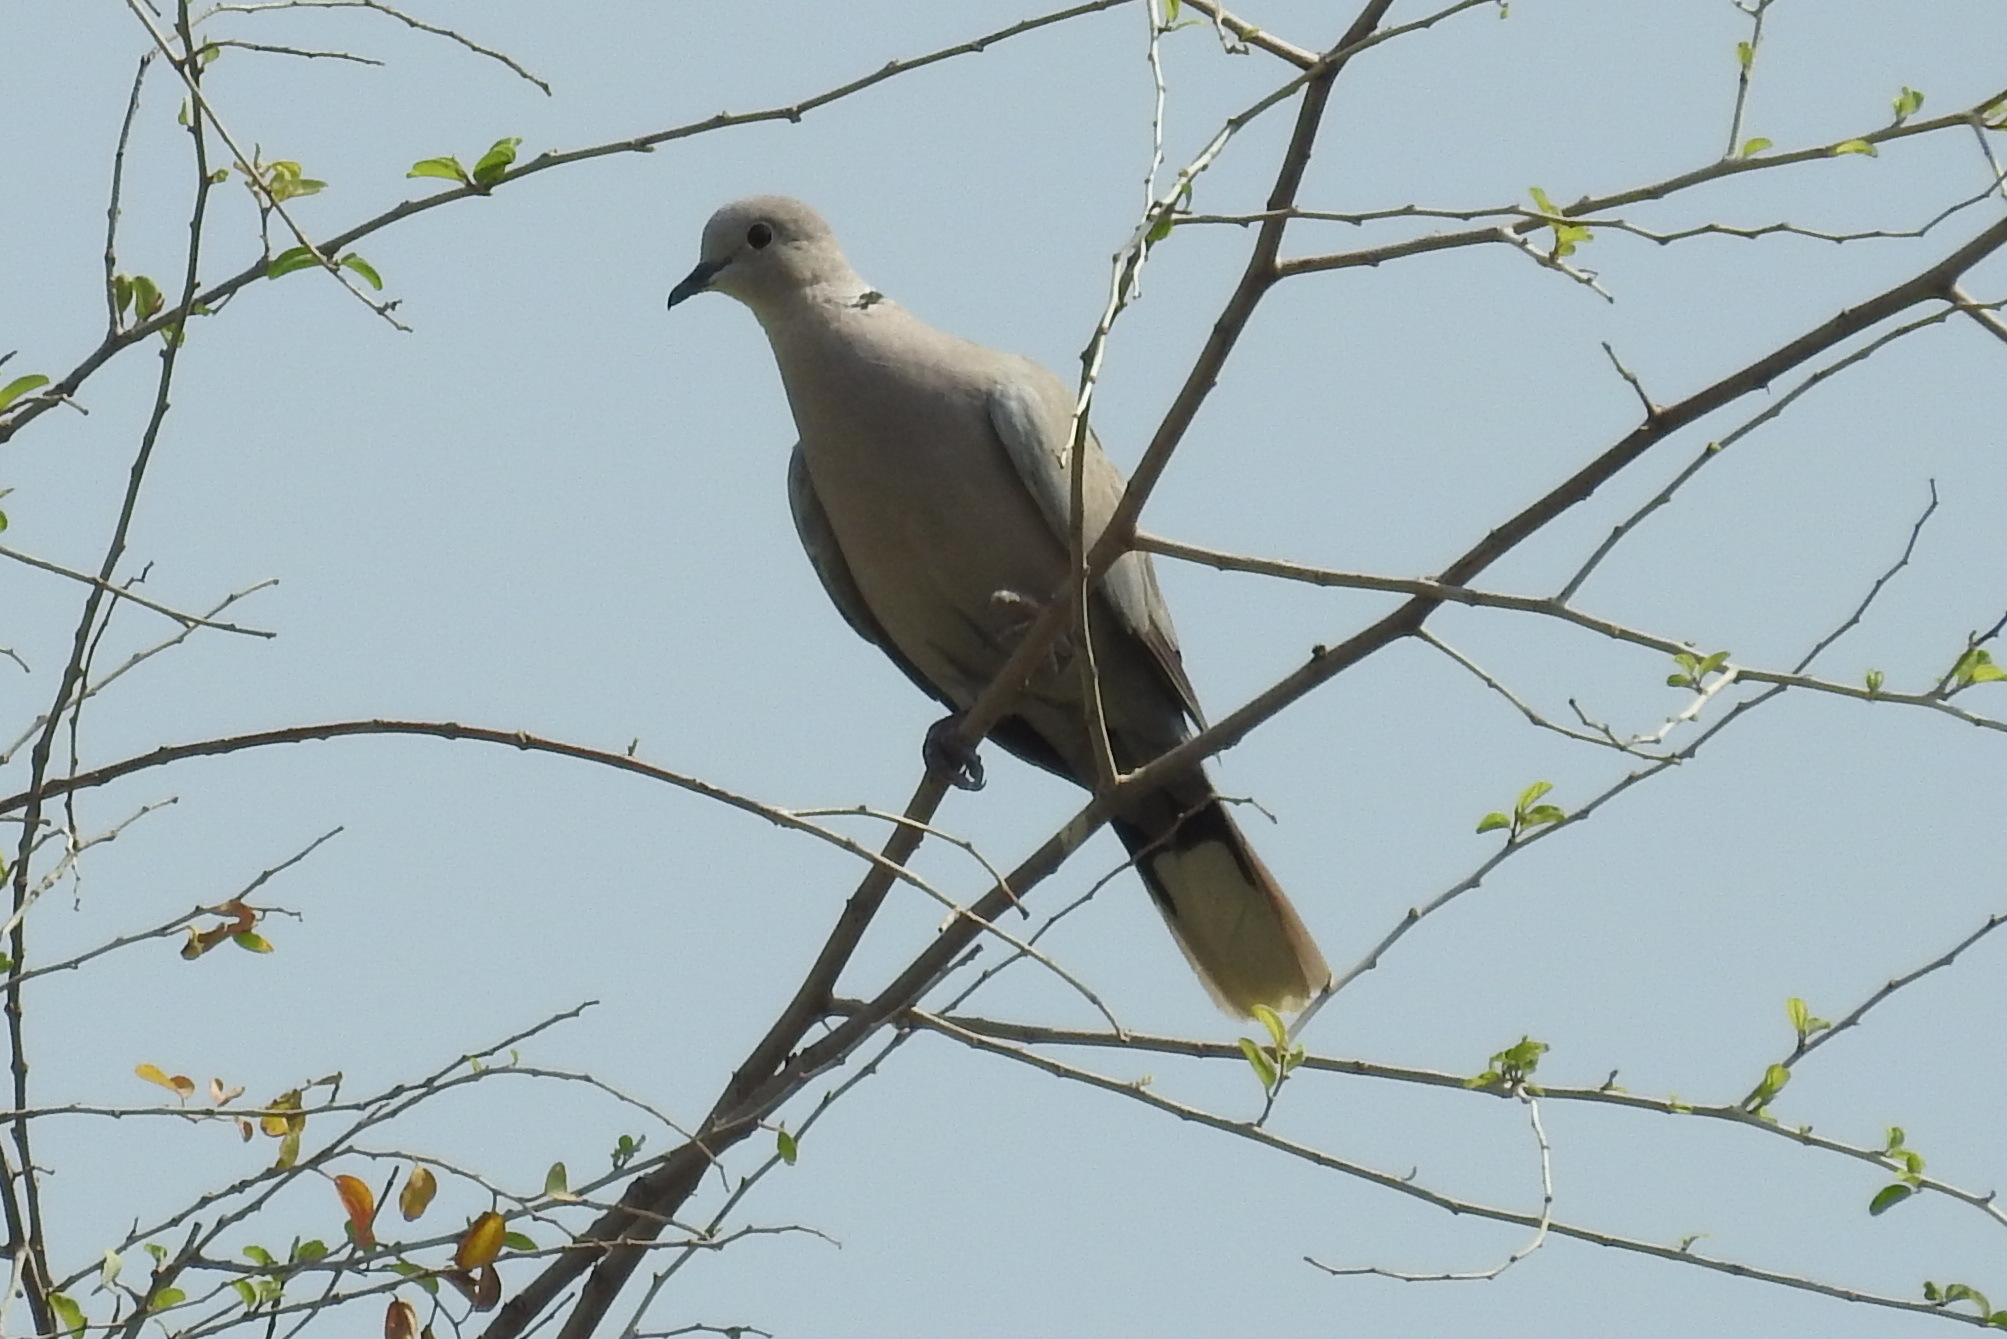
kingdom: Animalia
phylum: Chordata
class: Aves
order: Columbiformes
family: Columbidae
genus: Streptopelia
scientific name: Streptopelia decaocto
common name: Eurasian collared dove
